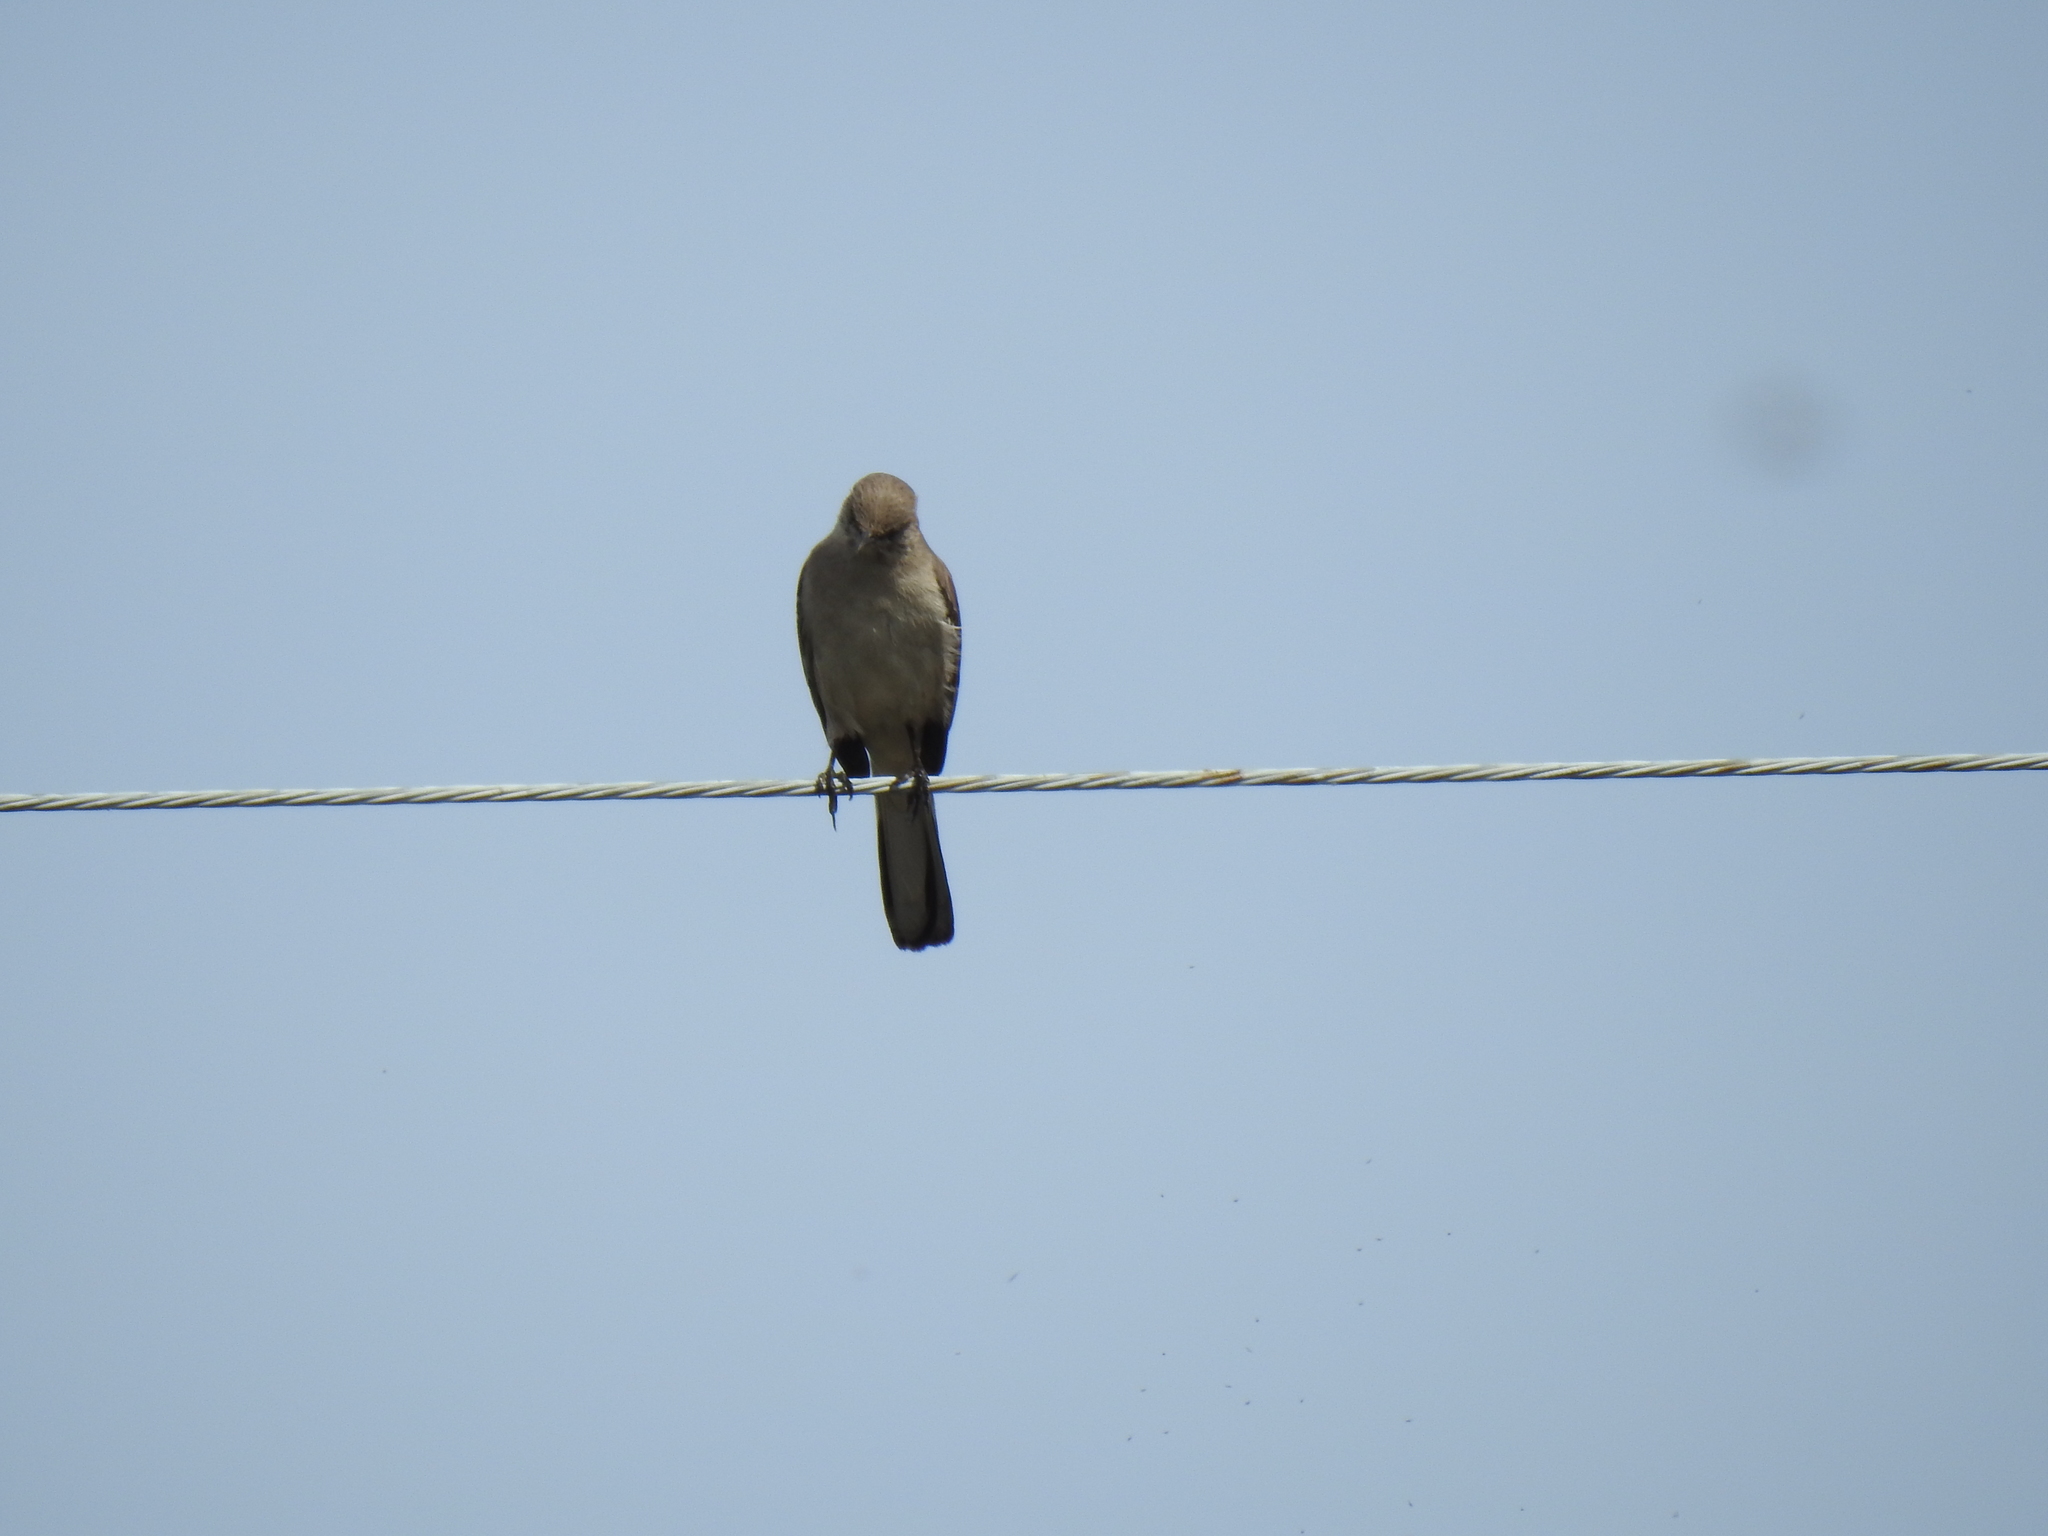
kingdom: Animalia
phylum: Chordata
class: Aves
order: Passeriformes
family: Mimidae
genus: Mimus
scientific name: Mimus polyglottos
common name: Northern mockingbird
